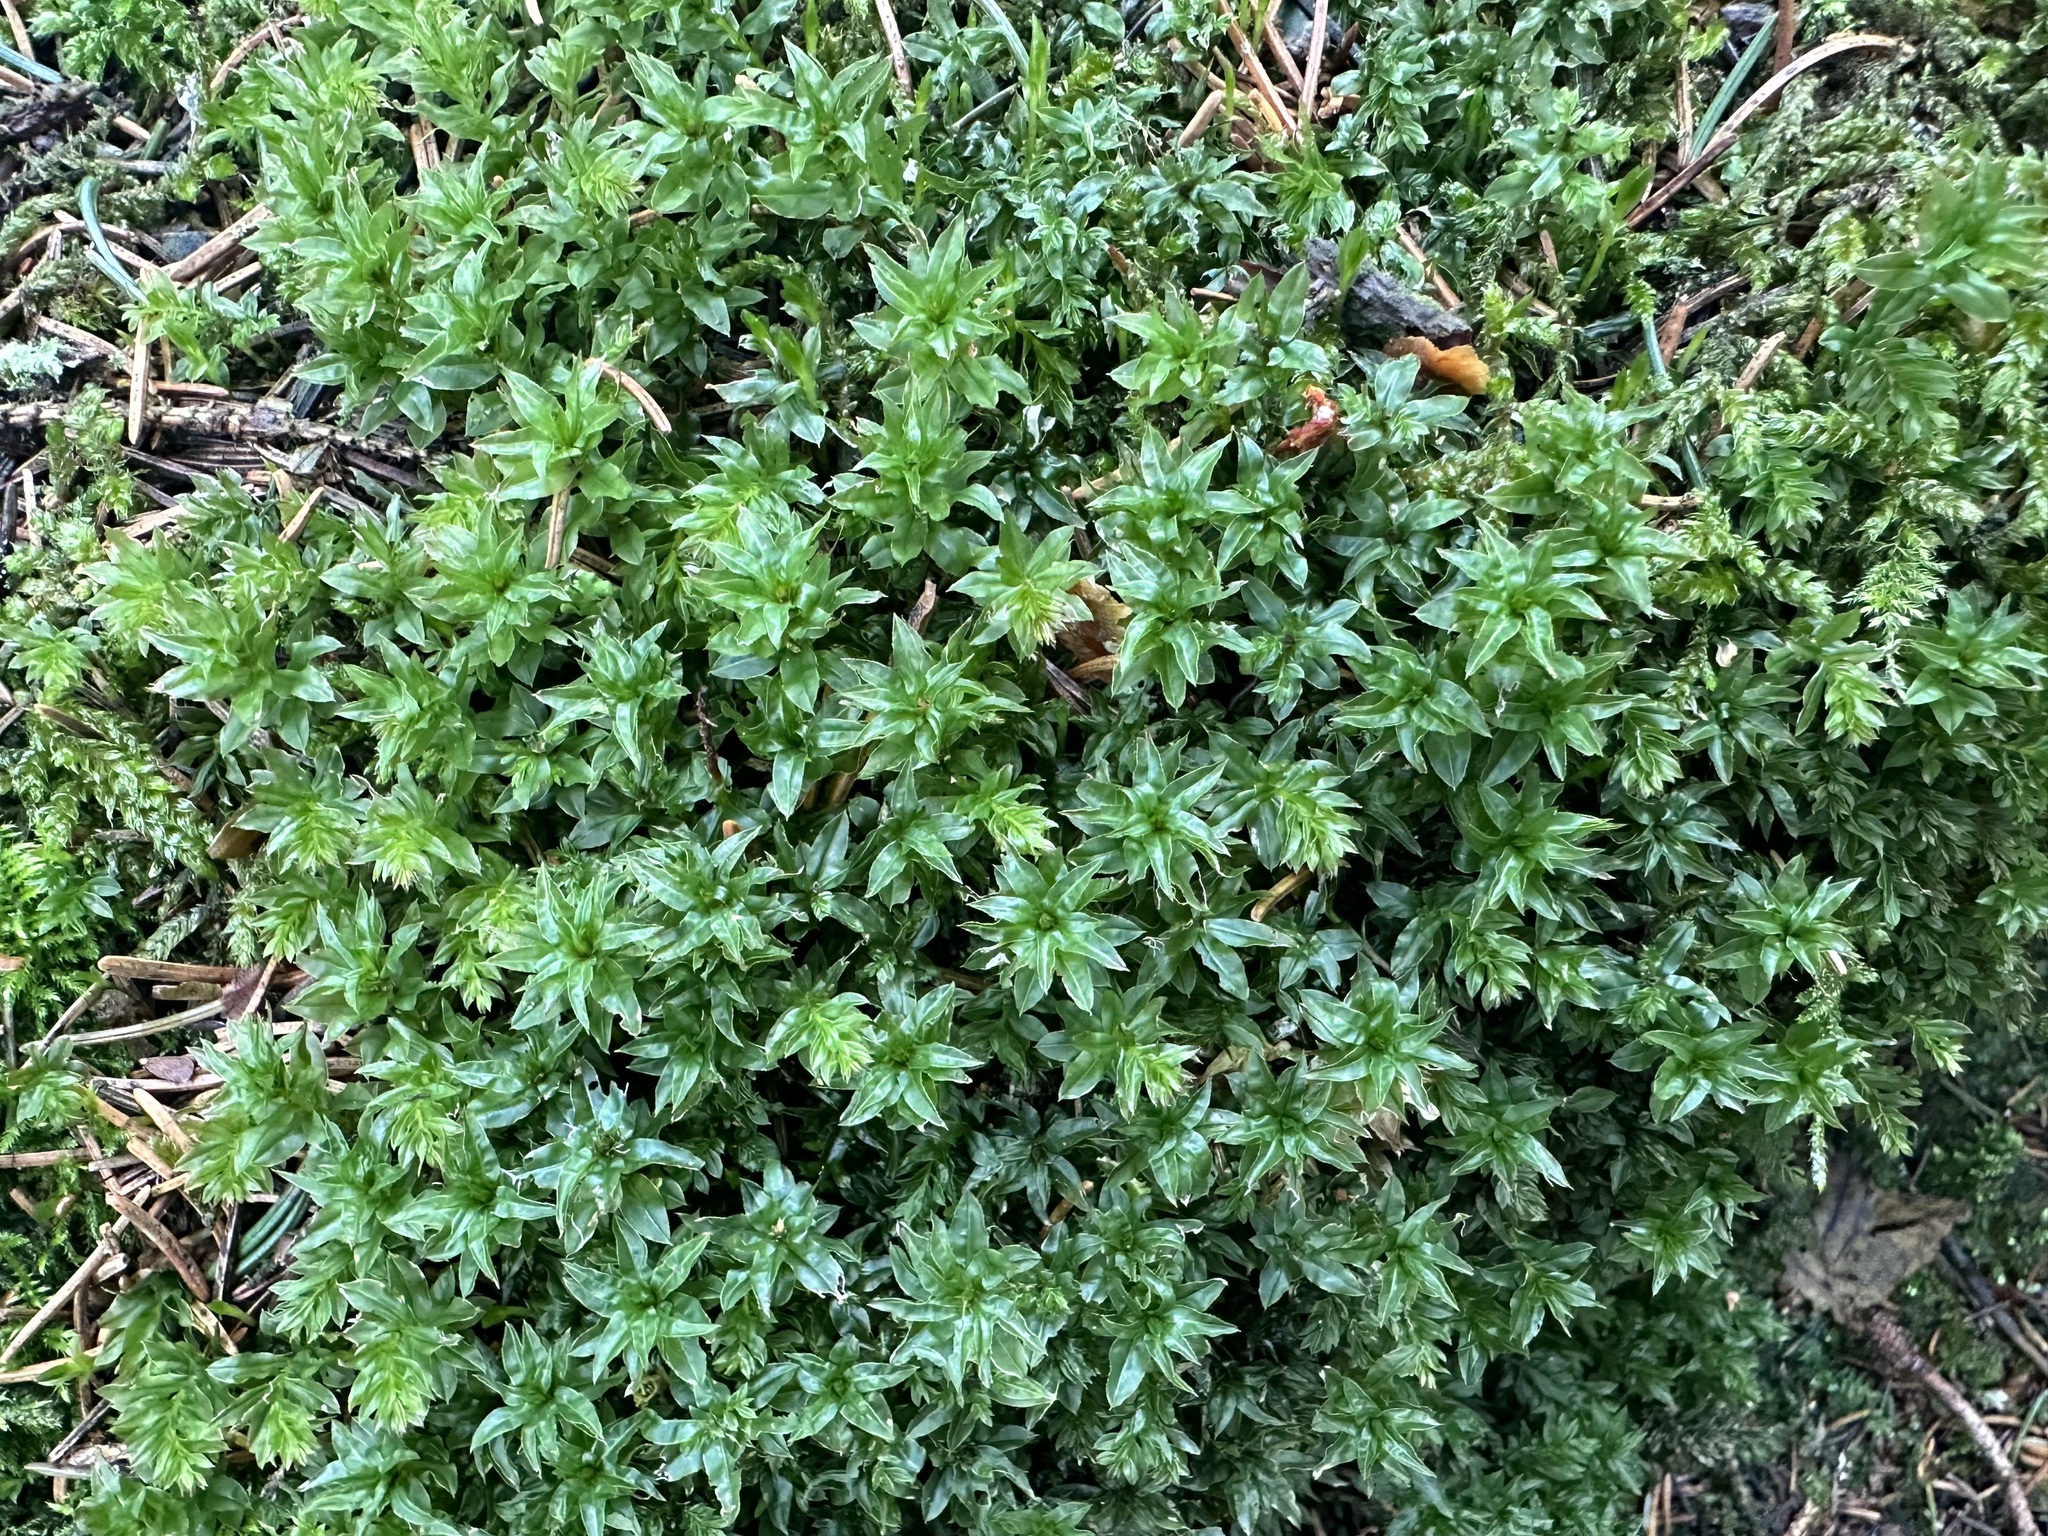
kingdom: Plantae
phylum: Bryophyta
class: Bryopsida
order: Bryales
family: Mniaceae
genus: Mnium
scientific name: Mnium spinosum
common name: Spinose thyme-moss
